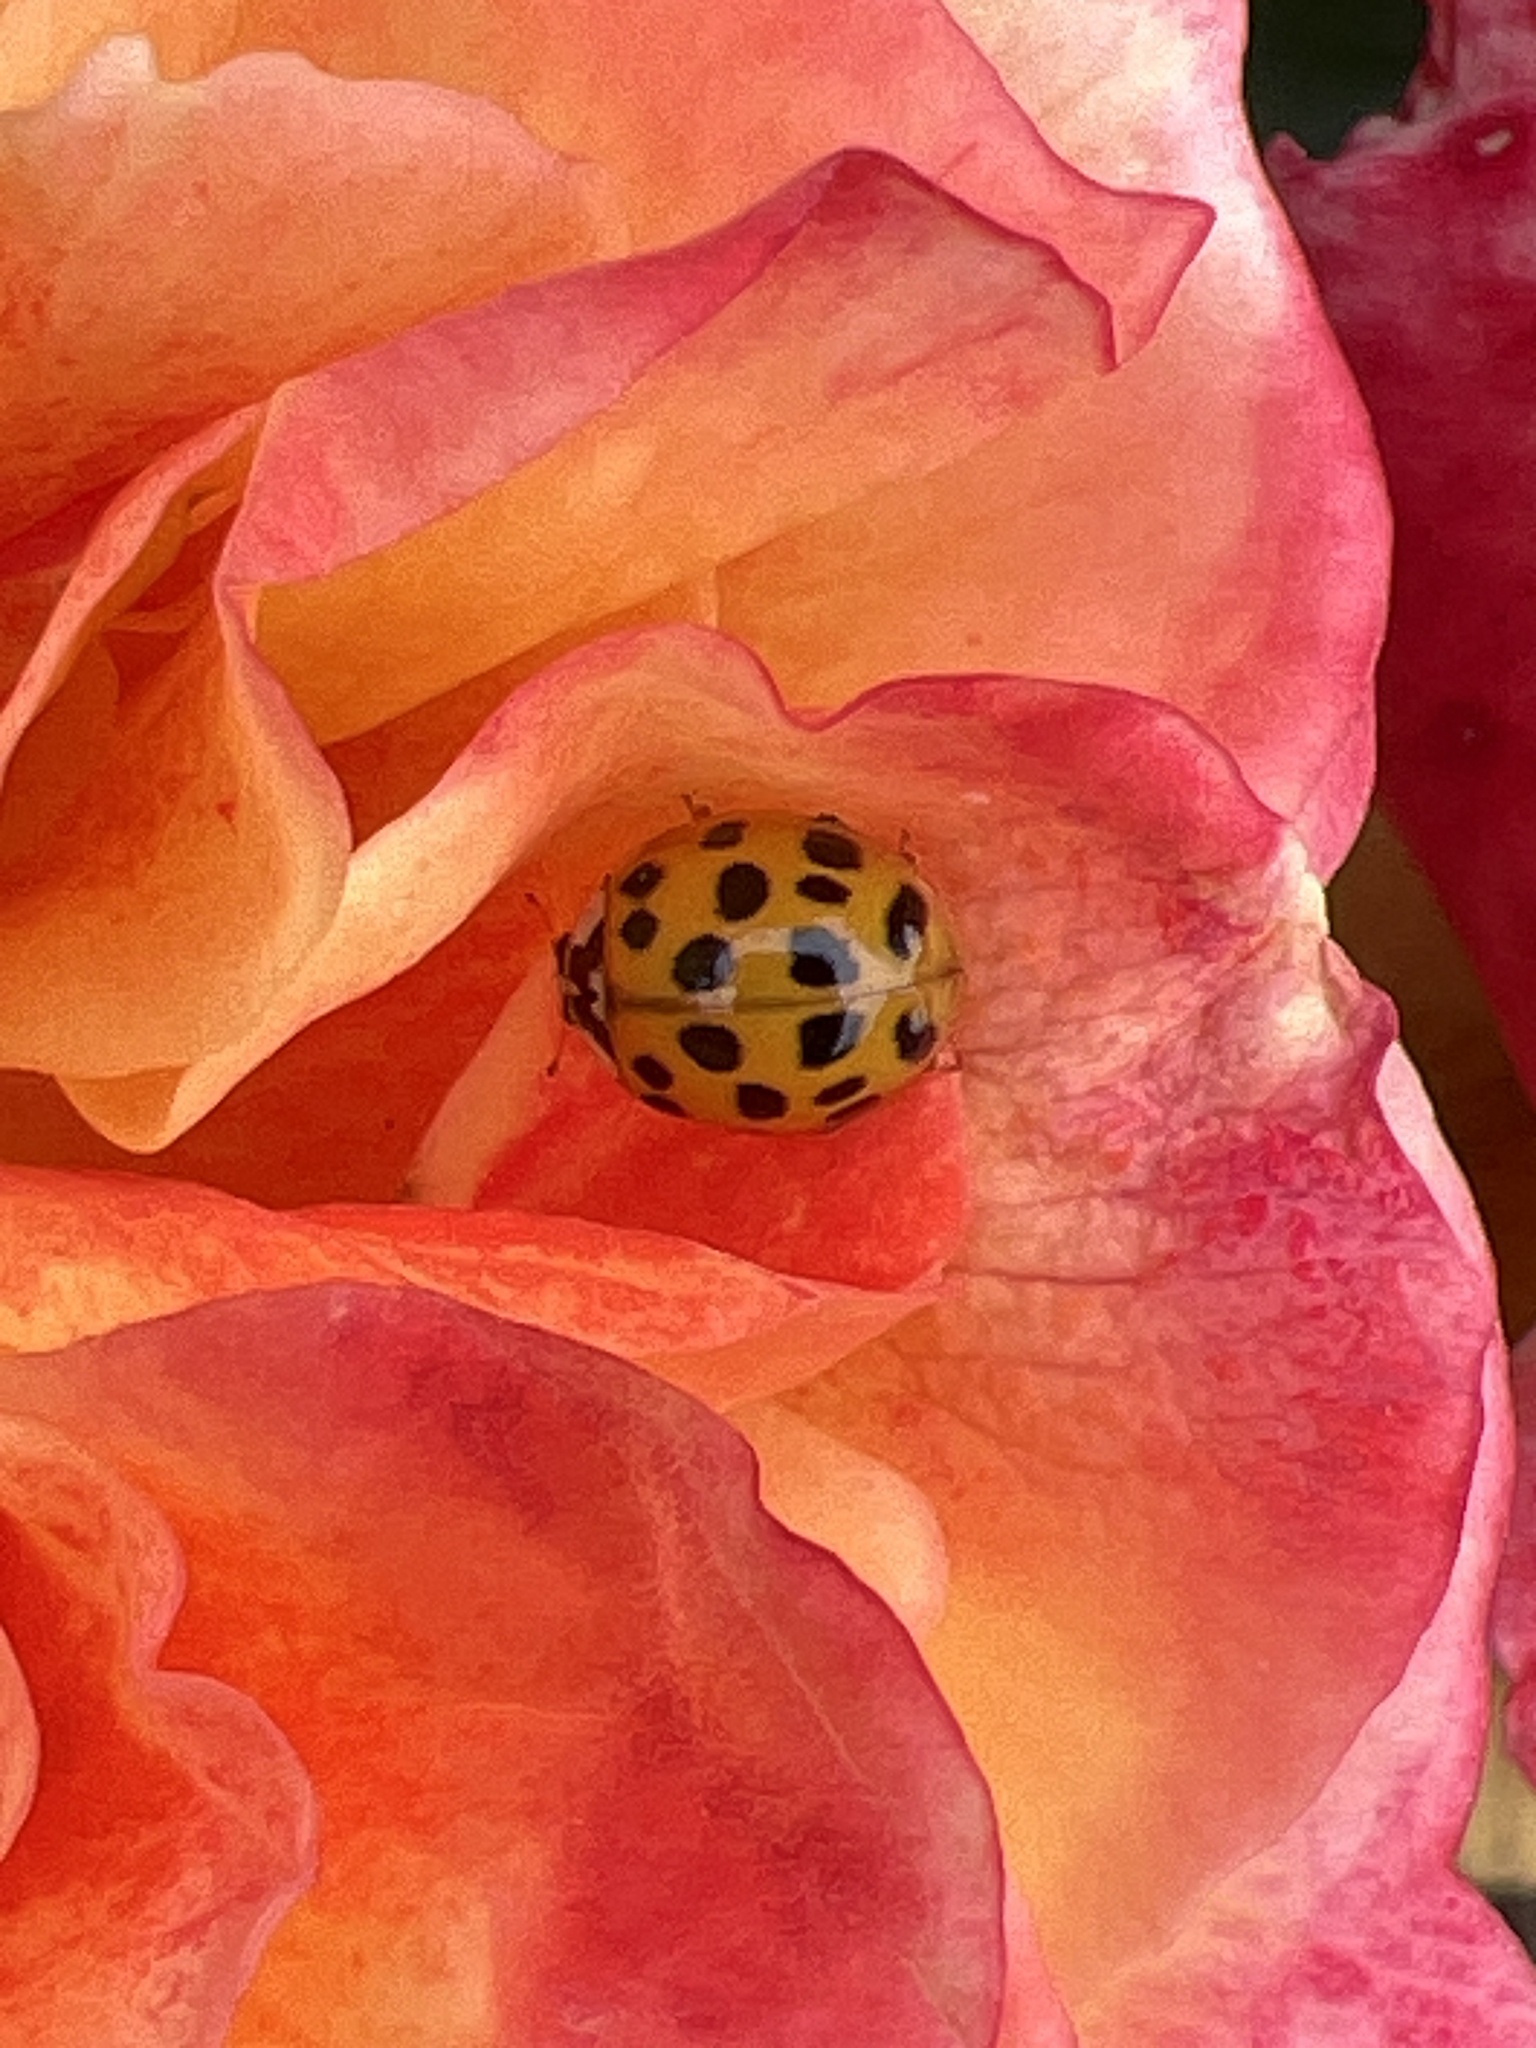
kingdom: Animalia
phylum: Arthropoda
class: Insecta
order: Coleoptera
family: Coccinellidae
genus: Harmonia
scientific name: Harmonia axyridis
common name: Harlequin ladybird
